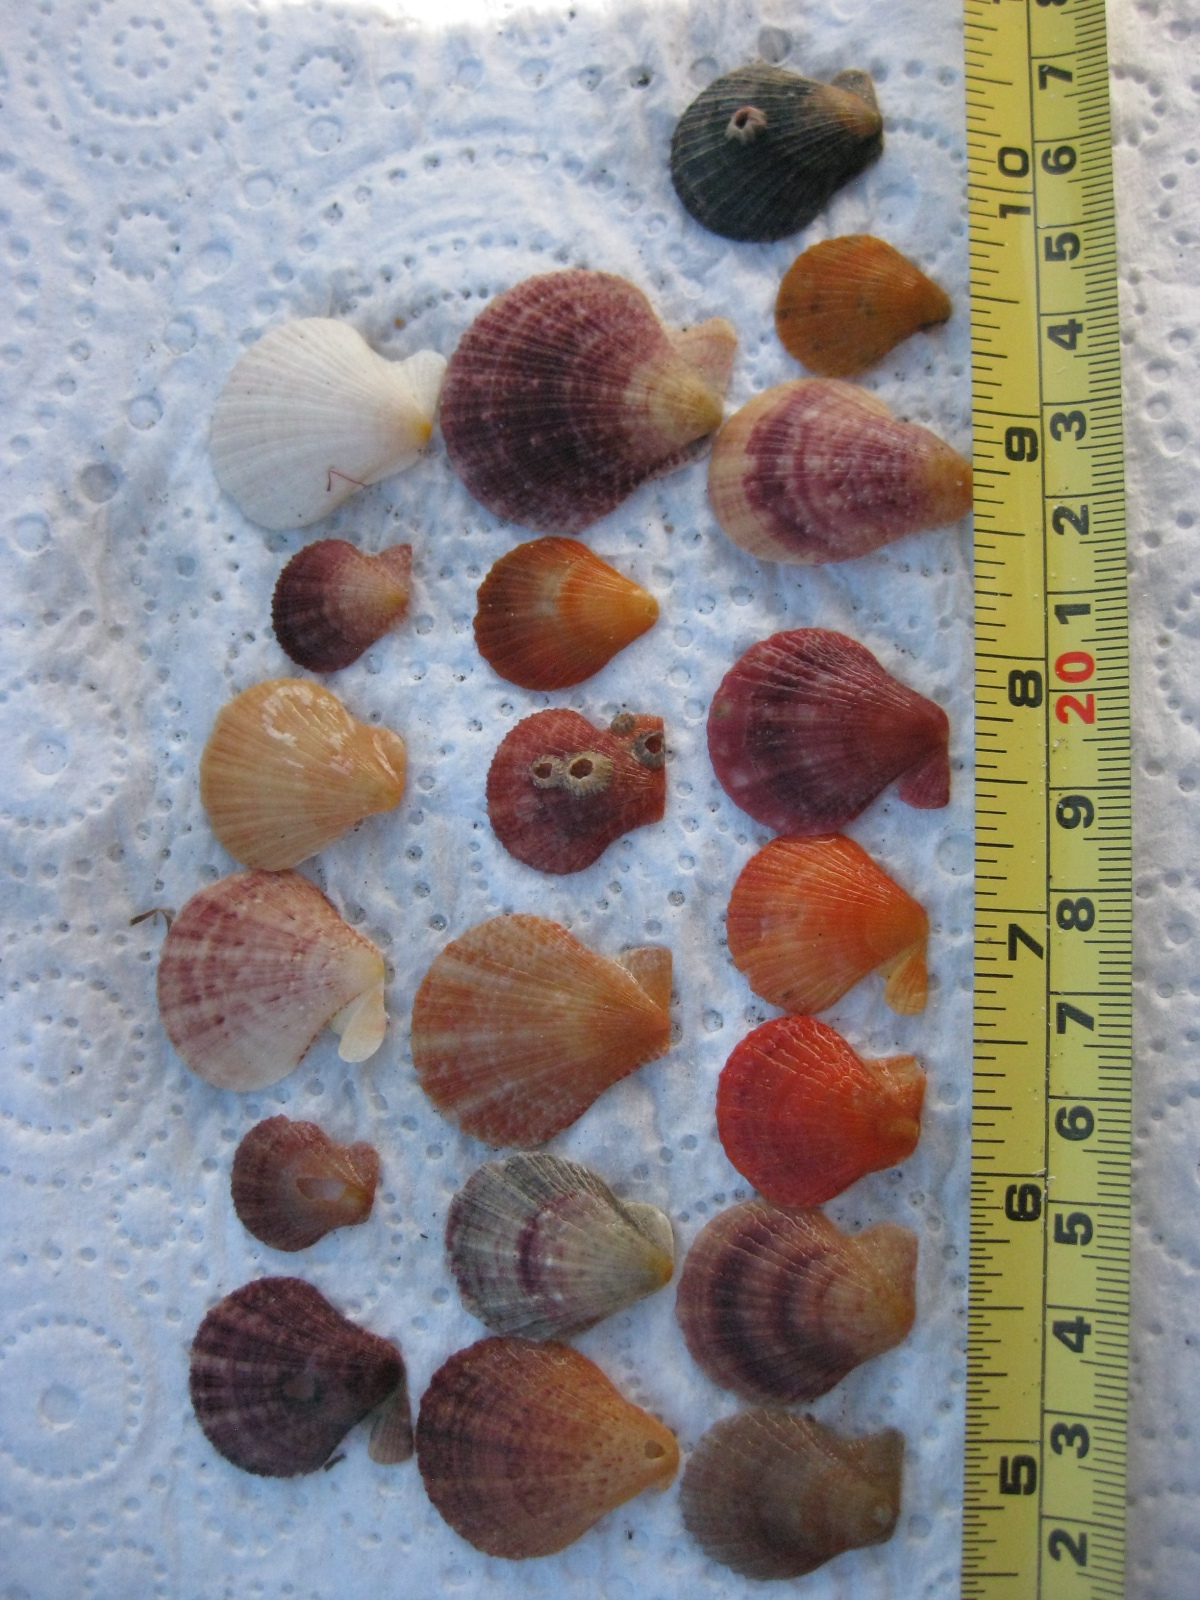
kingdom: Animalia
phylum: Mollusca
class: Bivalvia
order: Pectinida
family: Pectinidae
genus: Talochlamys
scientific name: Talochlamys zelandiae
